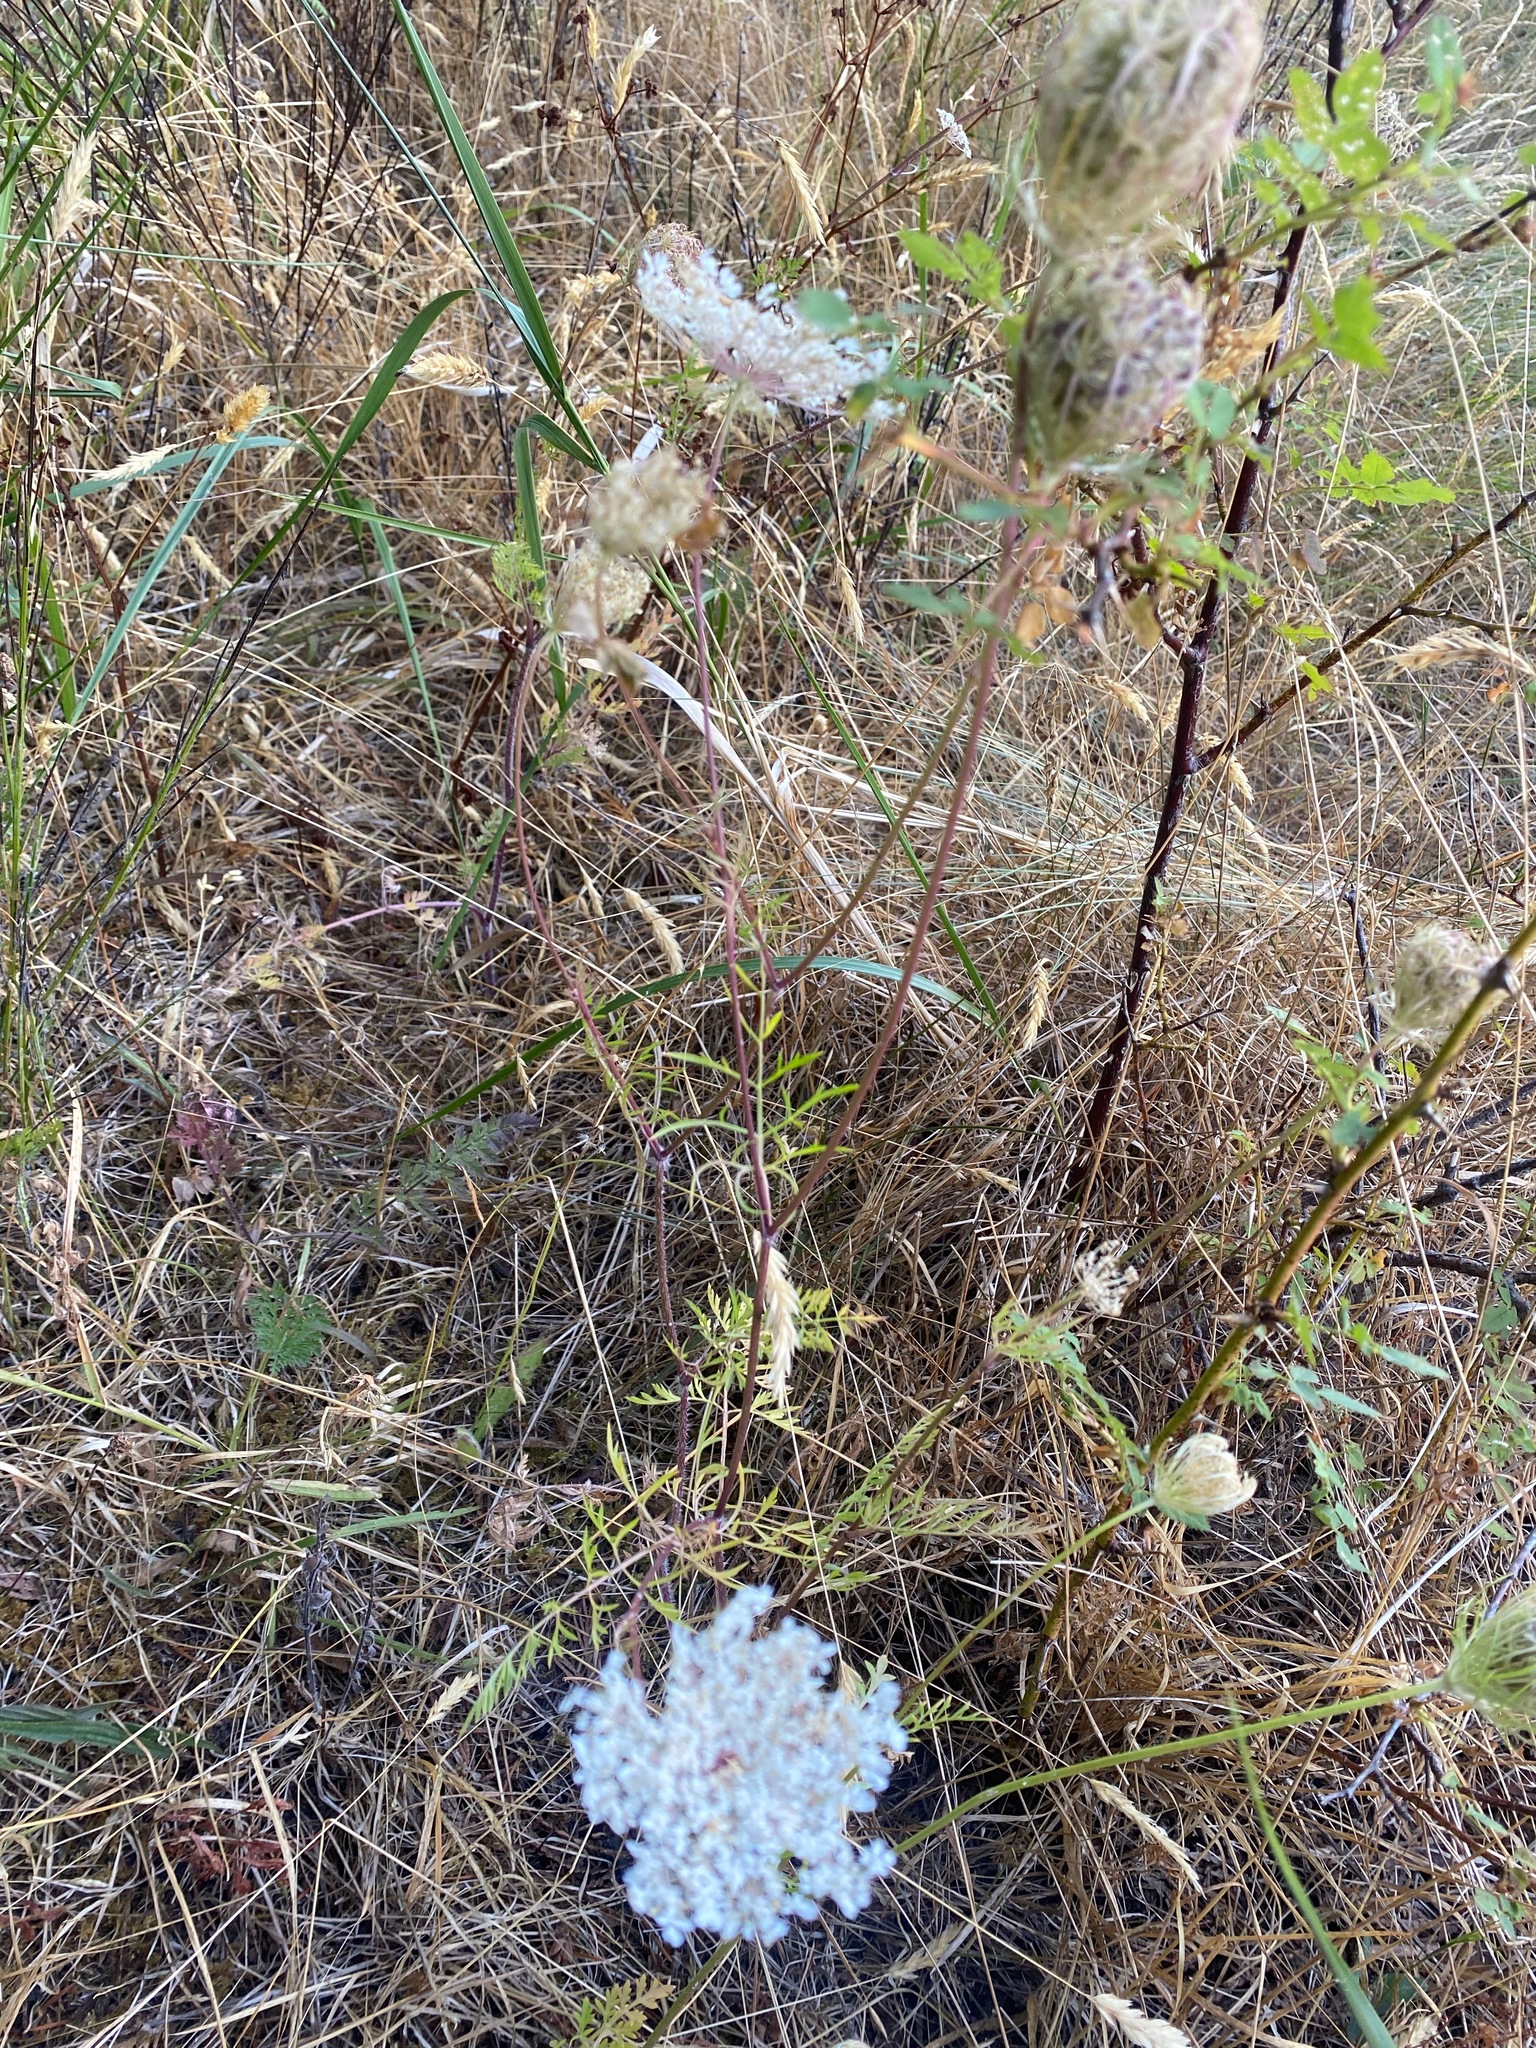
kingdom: Plantae
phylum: Tracheophyta
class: Magnoliopsida
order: Apiales
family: Apiaceae
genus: Daucus
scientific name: Daucus carota
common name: Wild carrot
